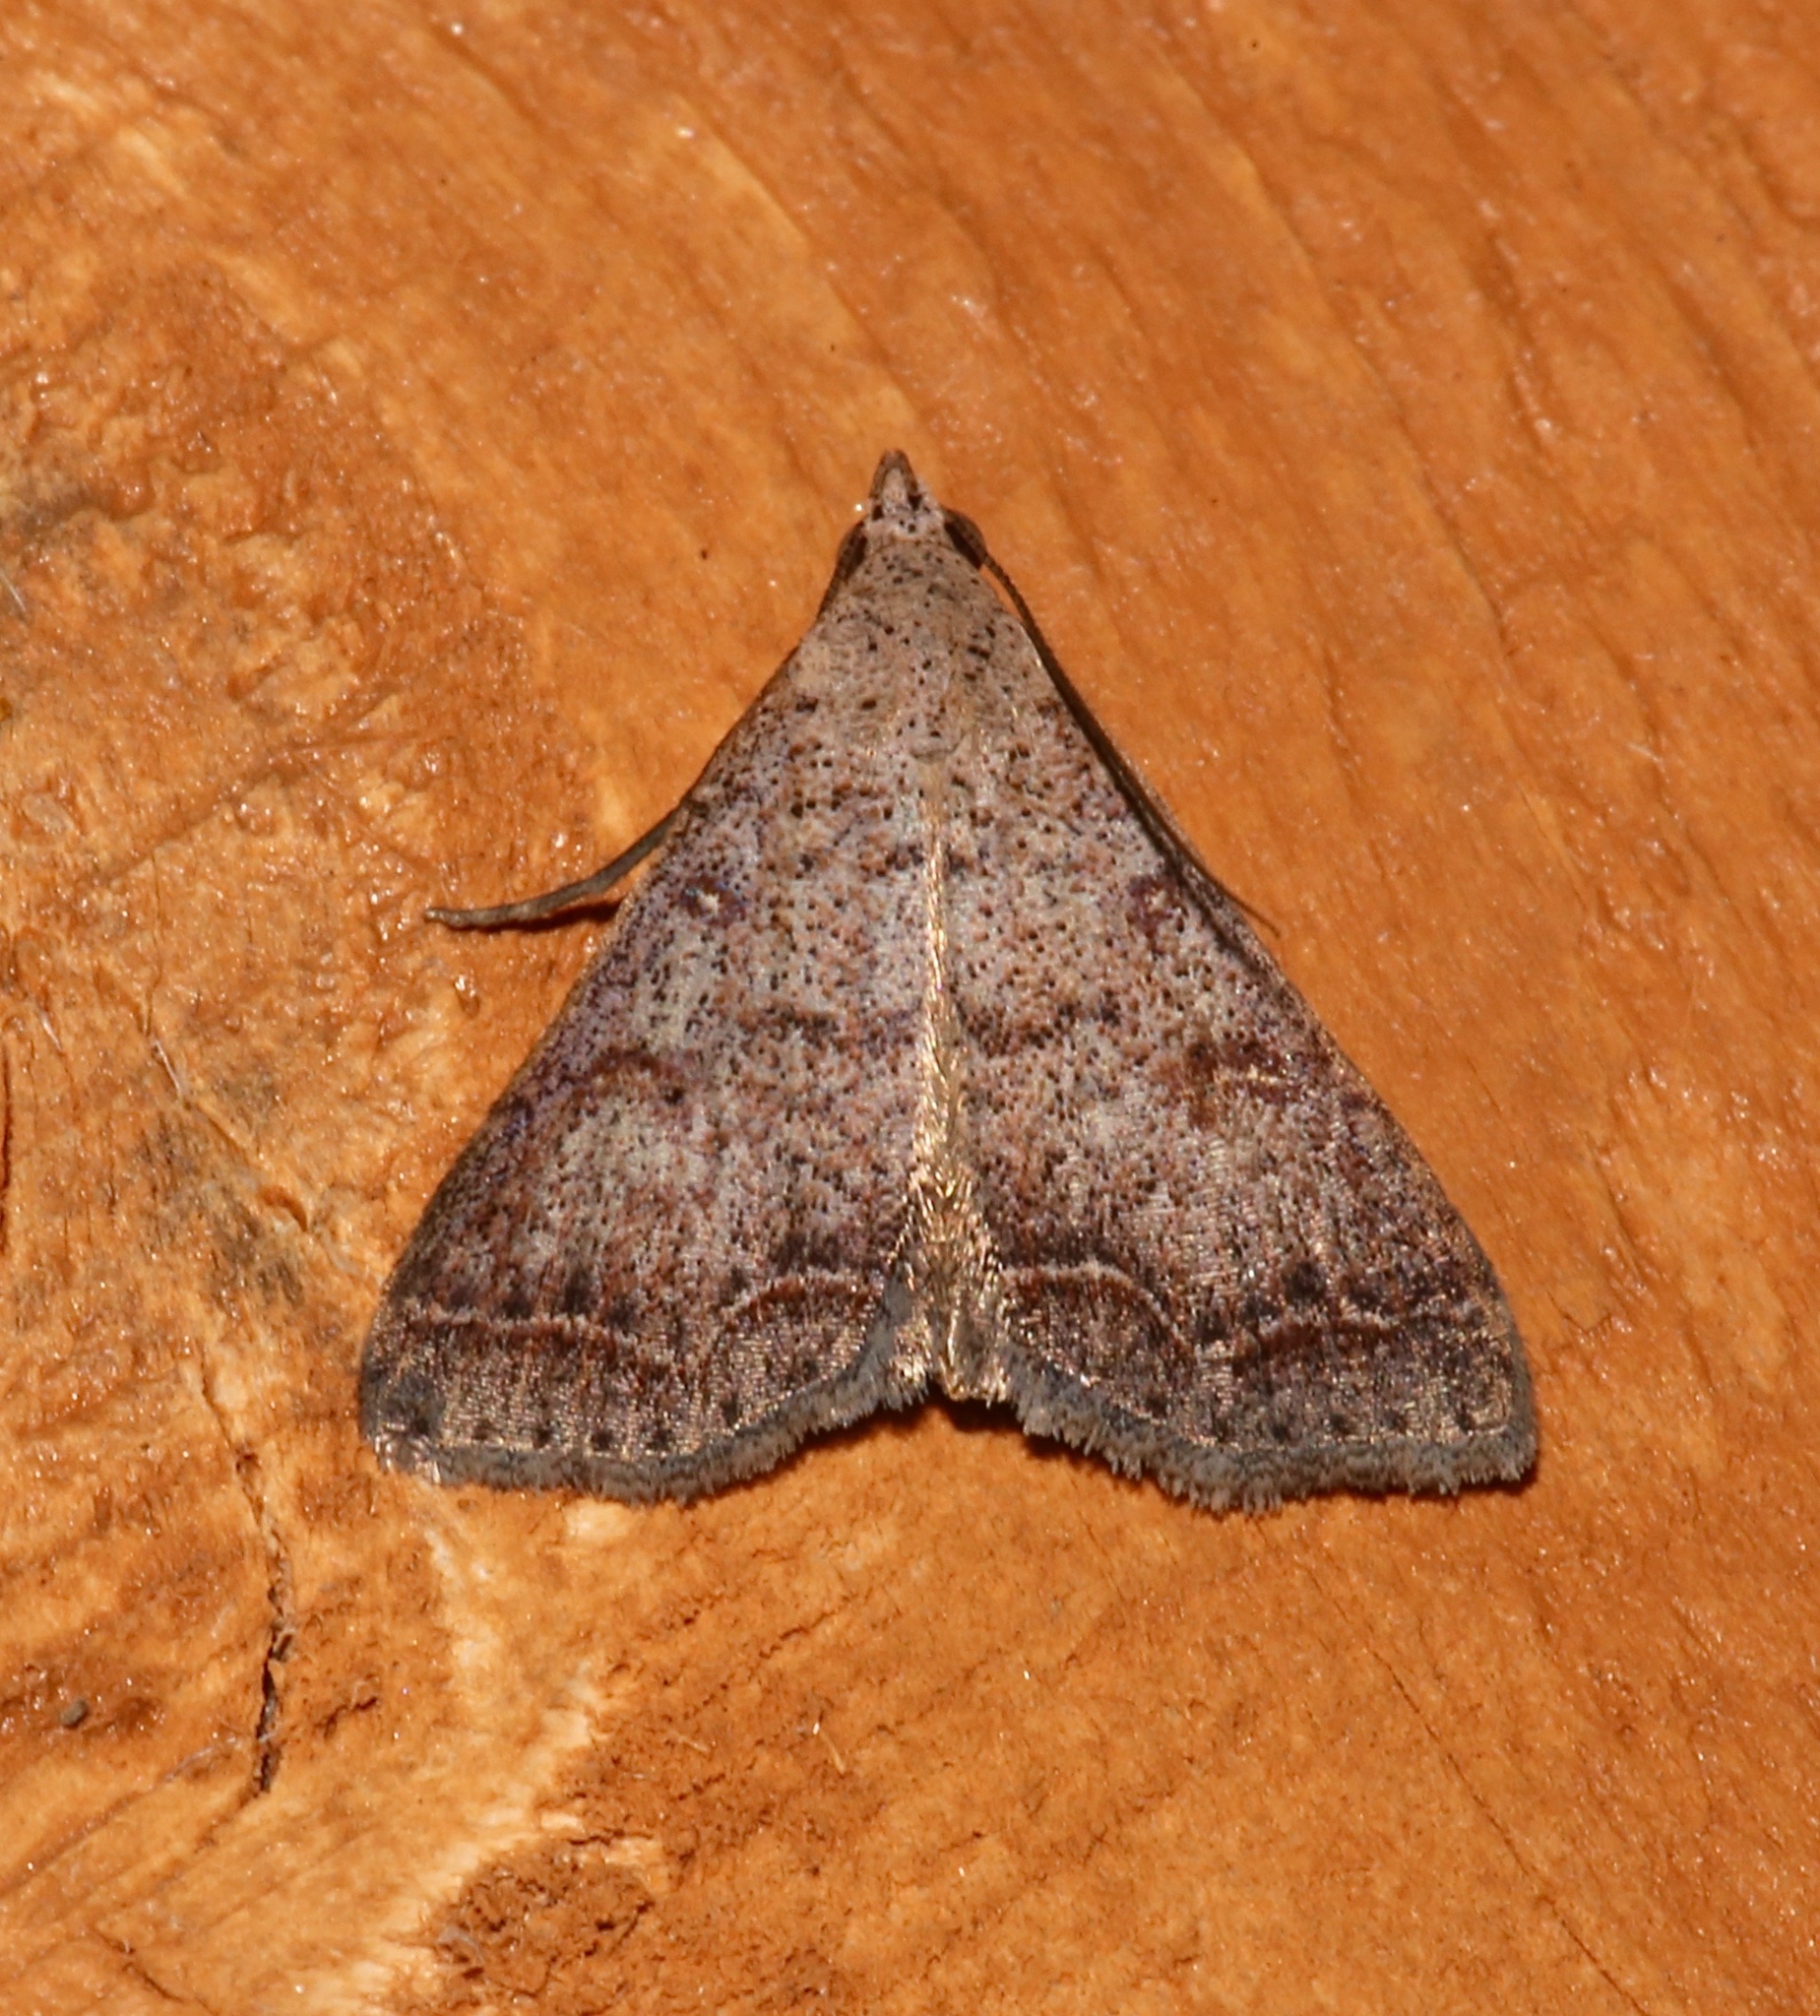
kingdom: Animalia
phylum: Arthropoda
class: Insecta
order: Lepidoptera
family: Erebidae
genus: Bleptina
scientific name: Bleptina caradrinalis
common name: Bent-winged owlet
